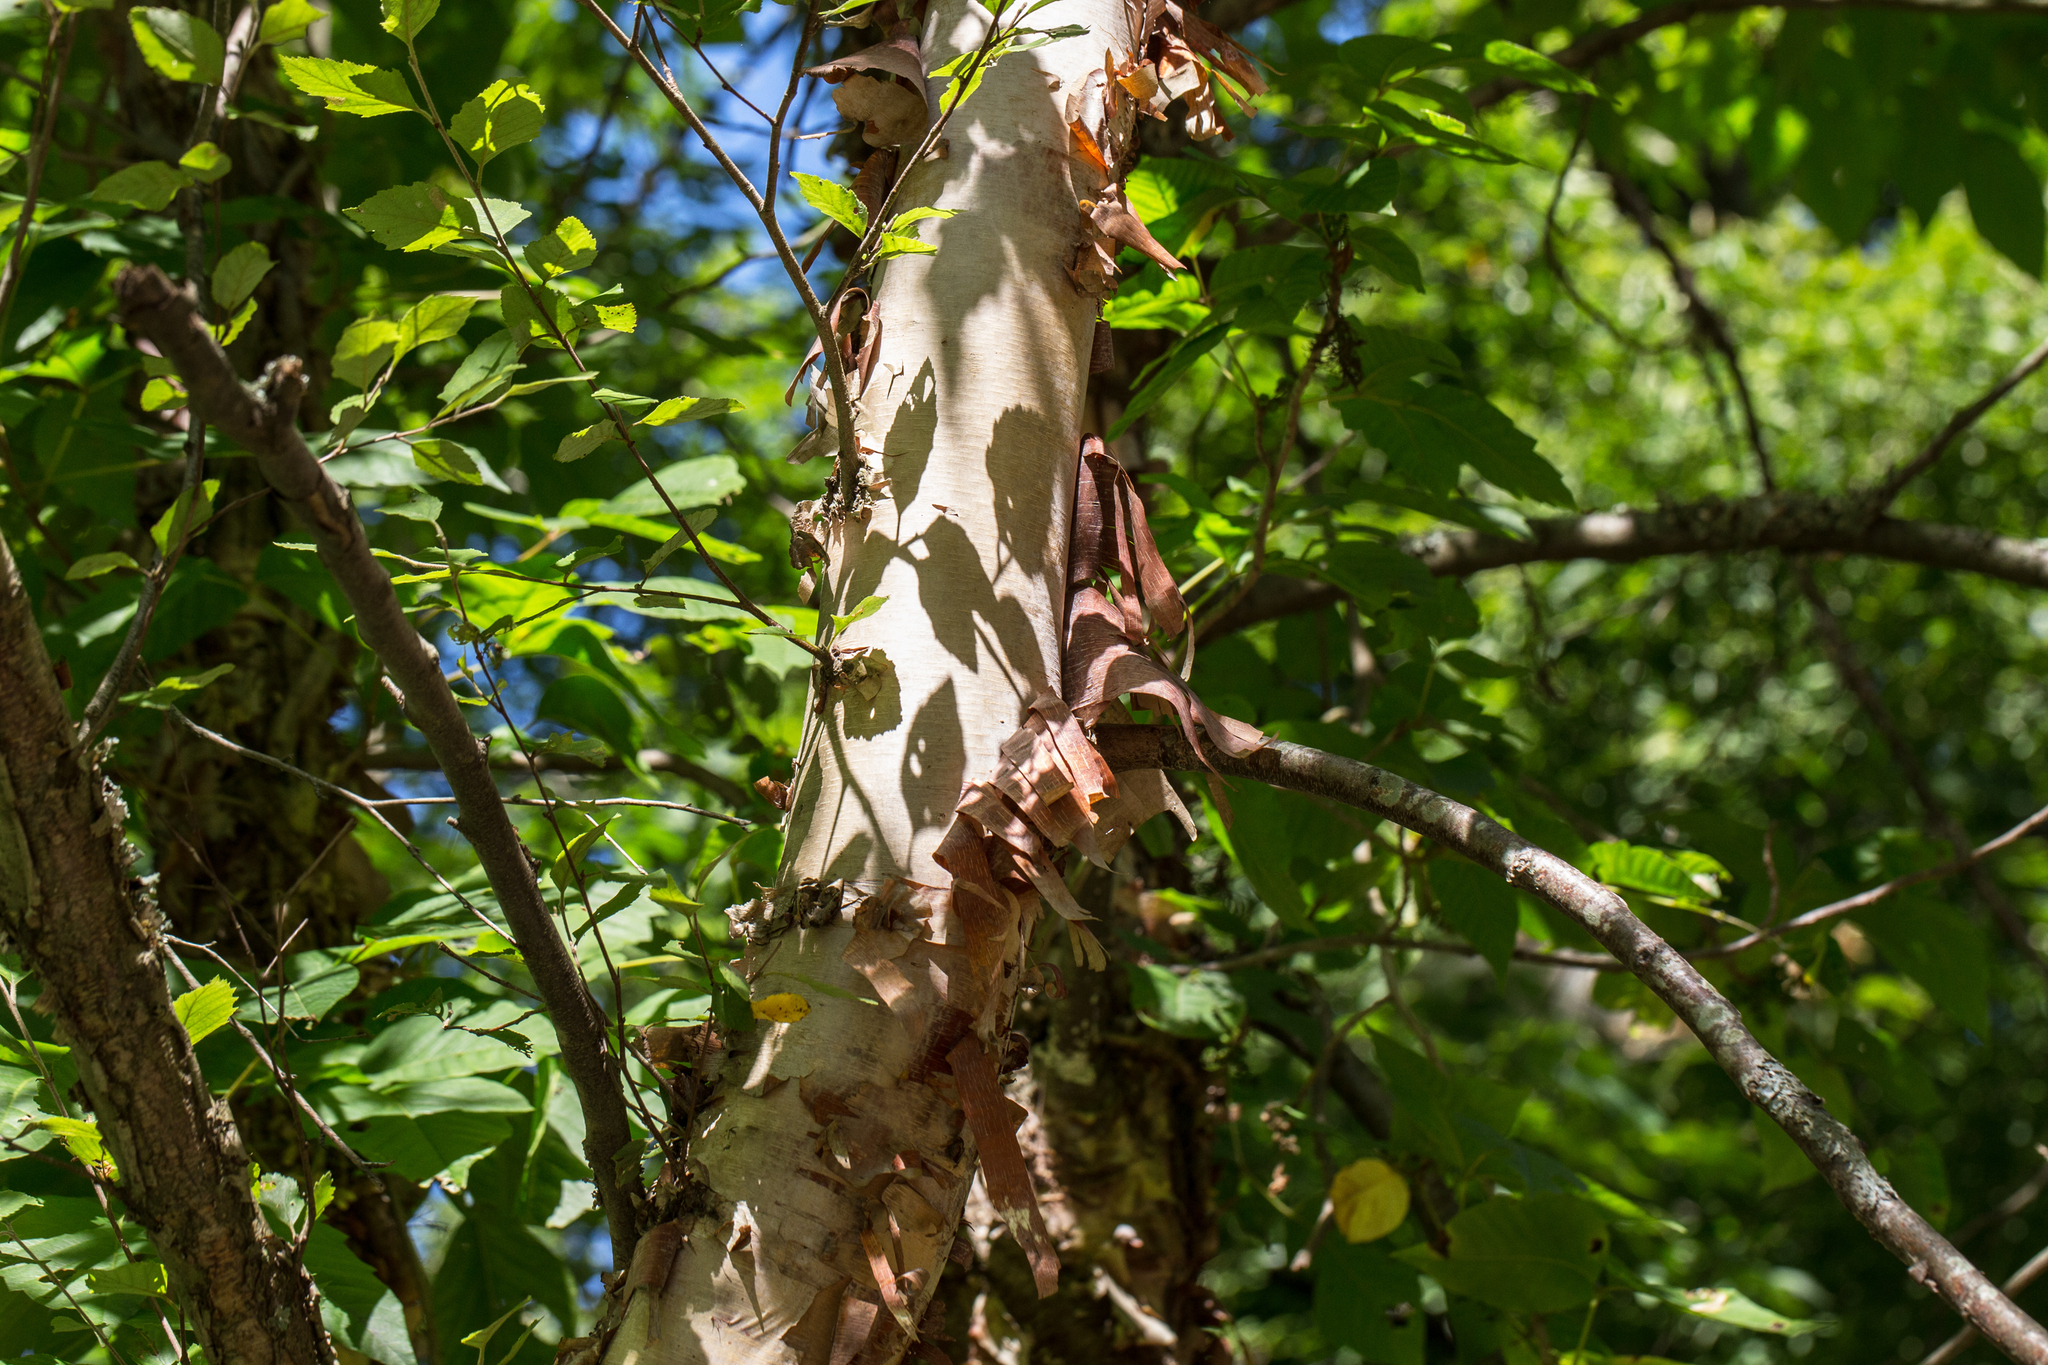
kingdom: Plantae
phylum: Tracheophyta
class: Magnoliopsida
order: Fagales
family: Betulaceae
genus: Betula
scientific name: Betula nigra
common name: Black birch
